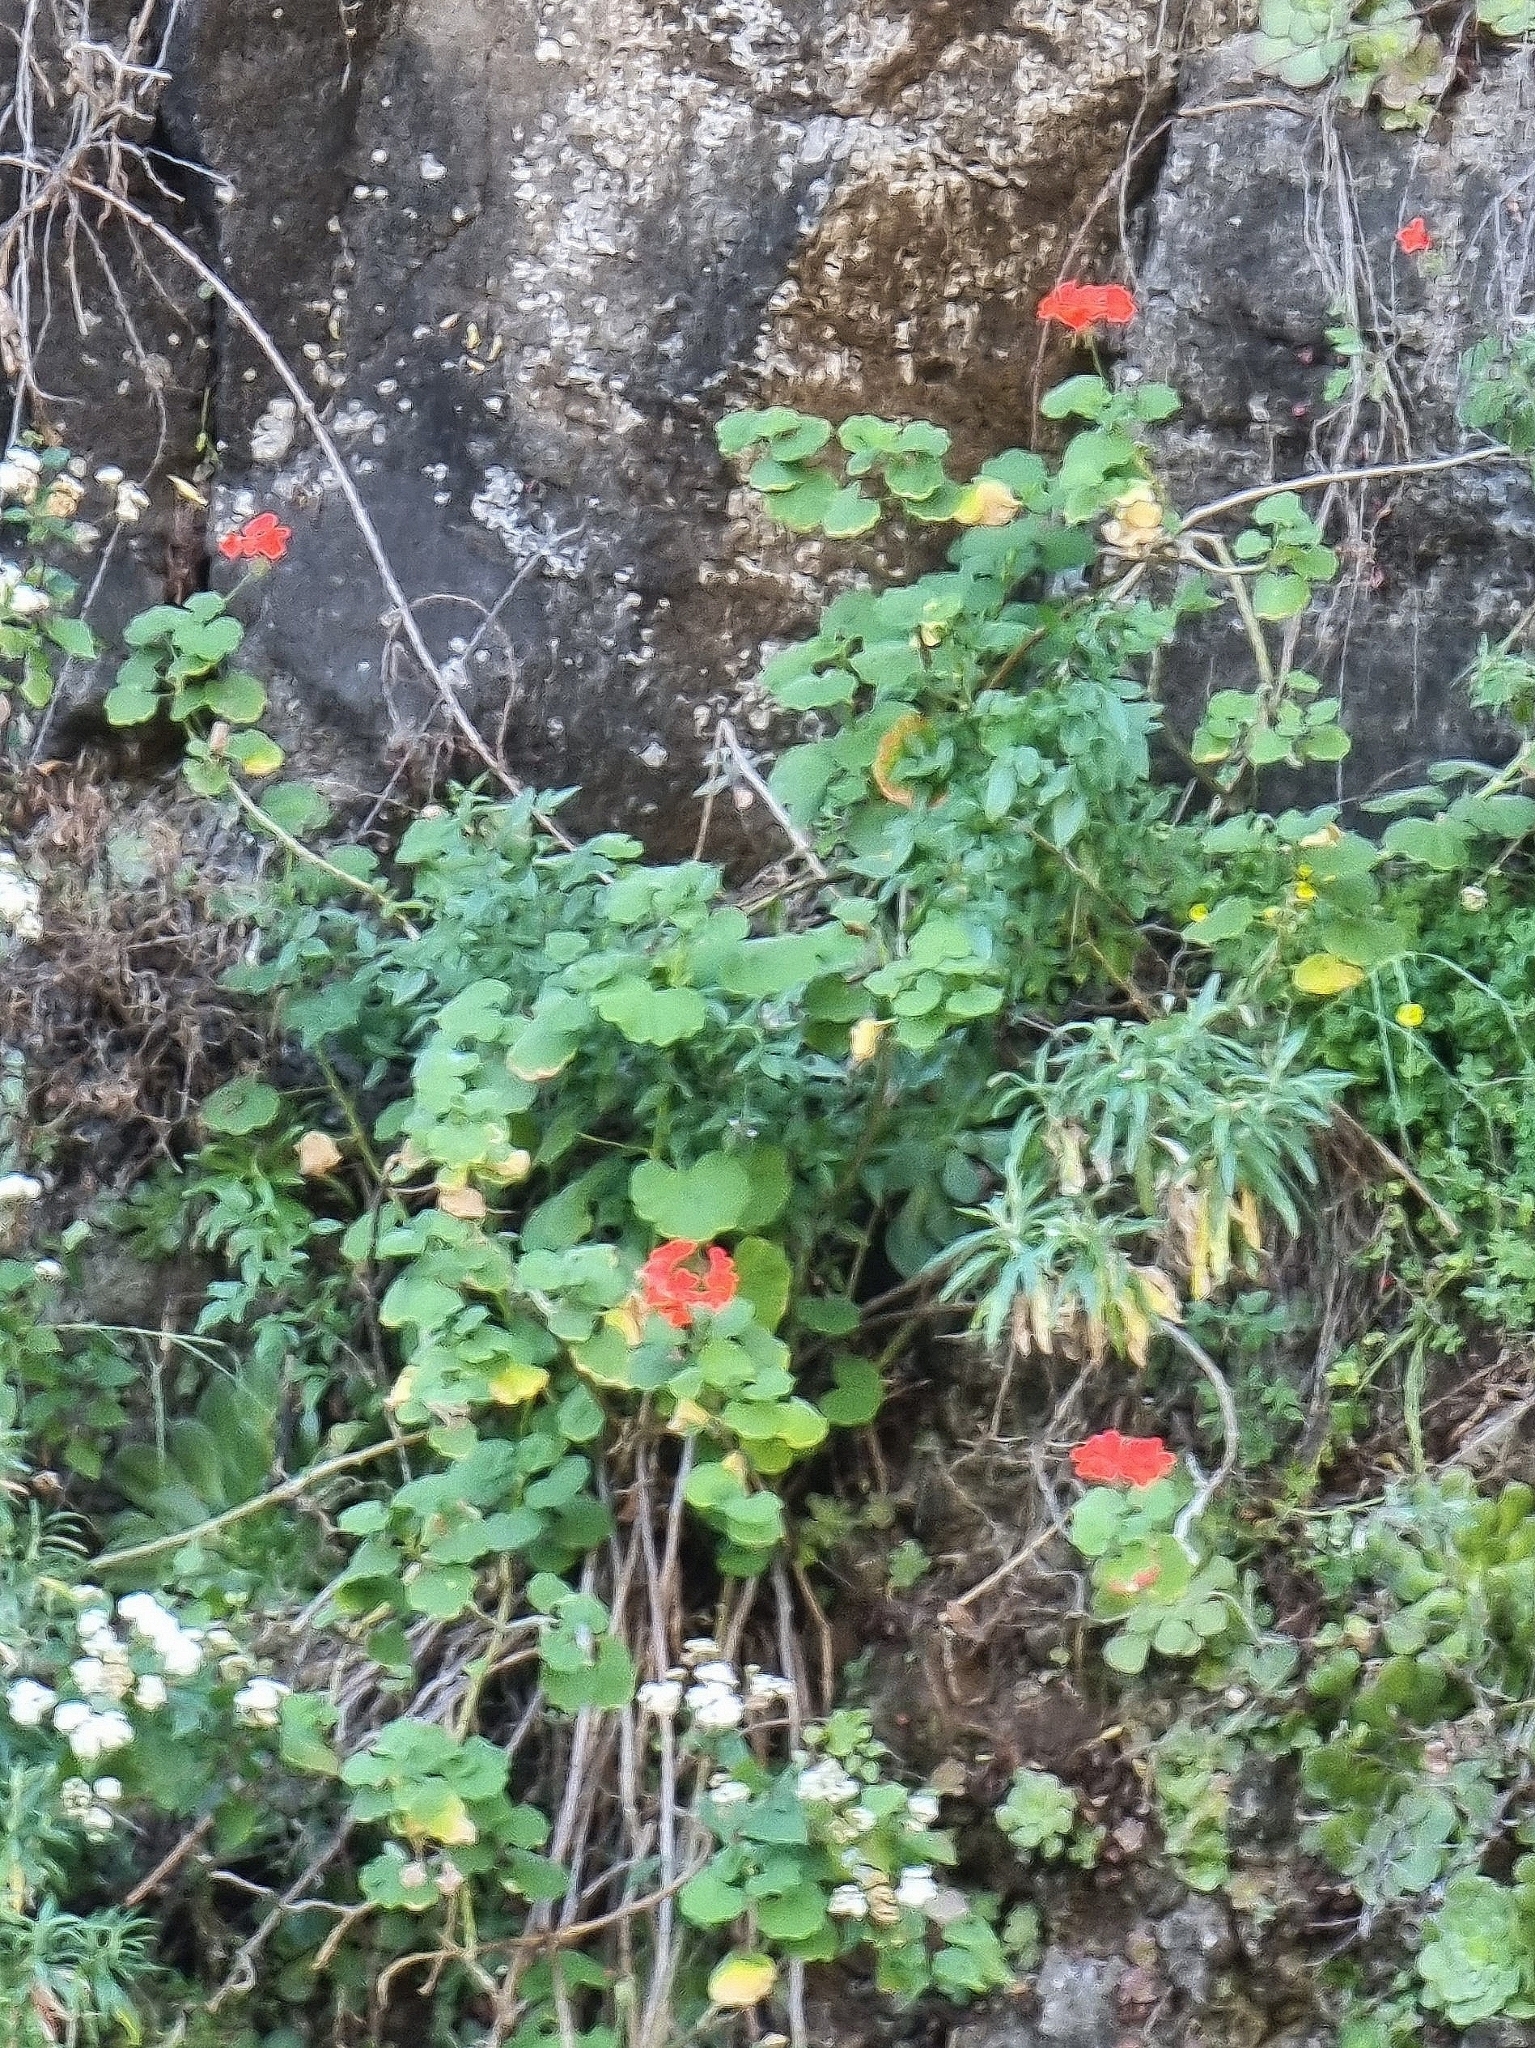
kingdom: Plantae
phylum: Tracheophyta
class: Magnoliopsida
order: Geraniales
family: Geraniaceae
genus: Pelargonium
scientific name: Pelargonium hybridum
